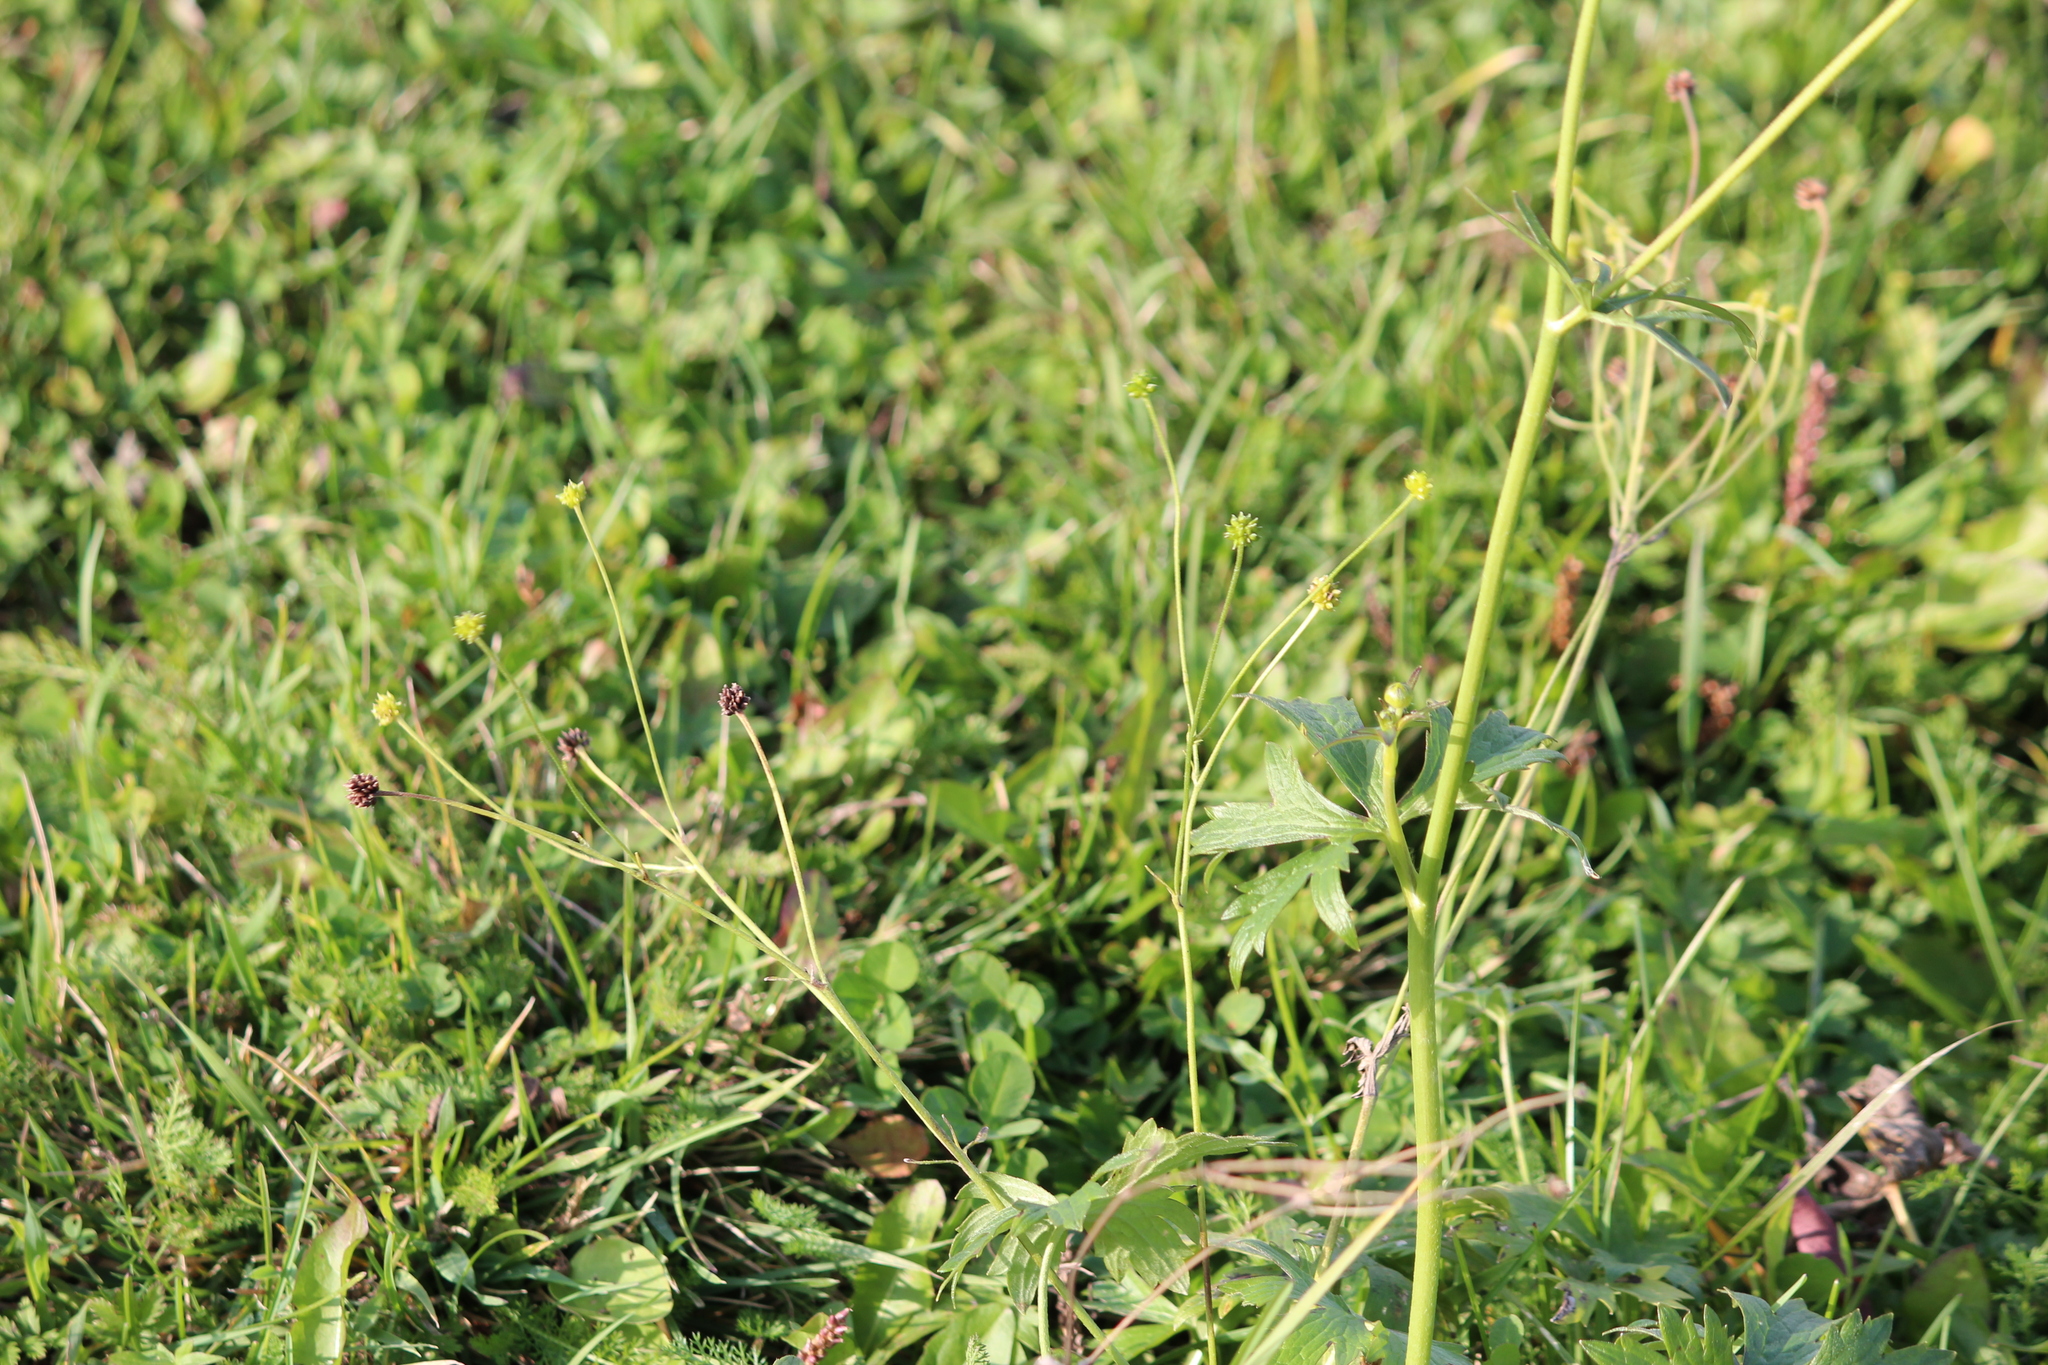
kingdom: Plantae
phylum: Tracheophyta
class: Magnoliopsida
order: Ranunculales
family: Ranunculaceae
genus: Ranunculus
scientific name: Ranunculus acris
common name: Meadow buttercup
